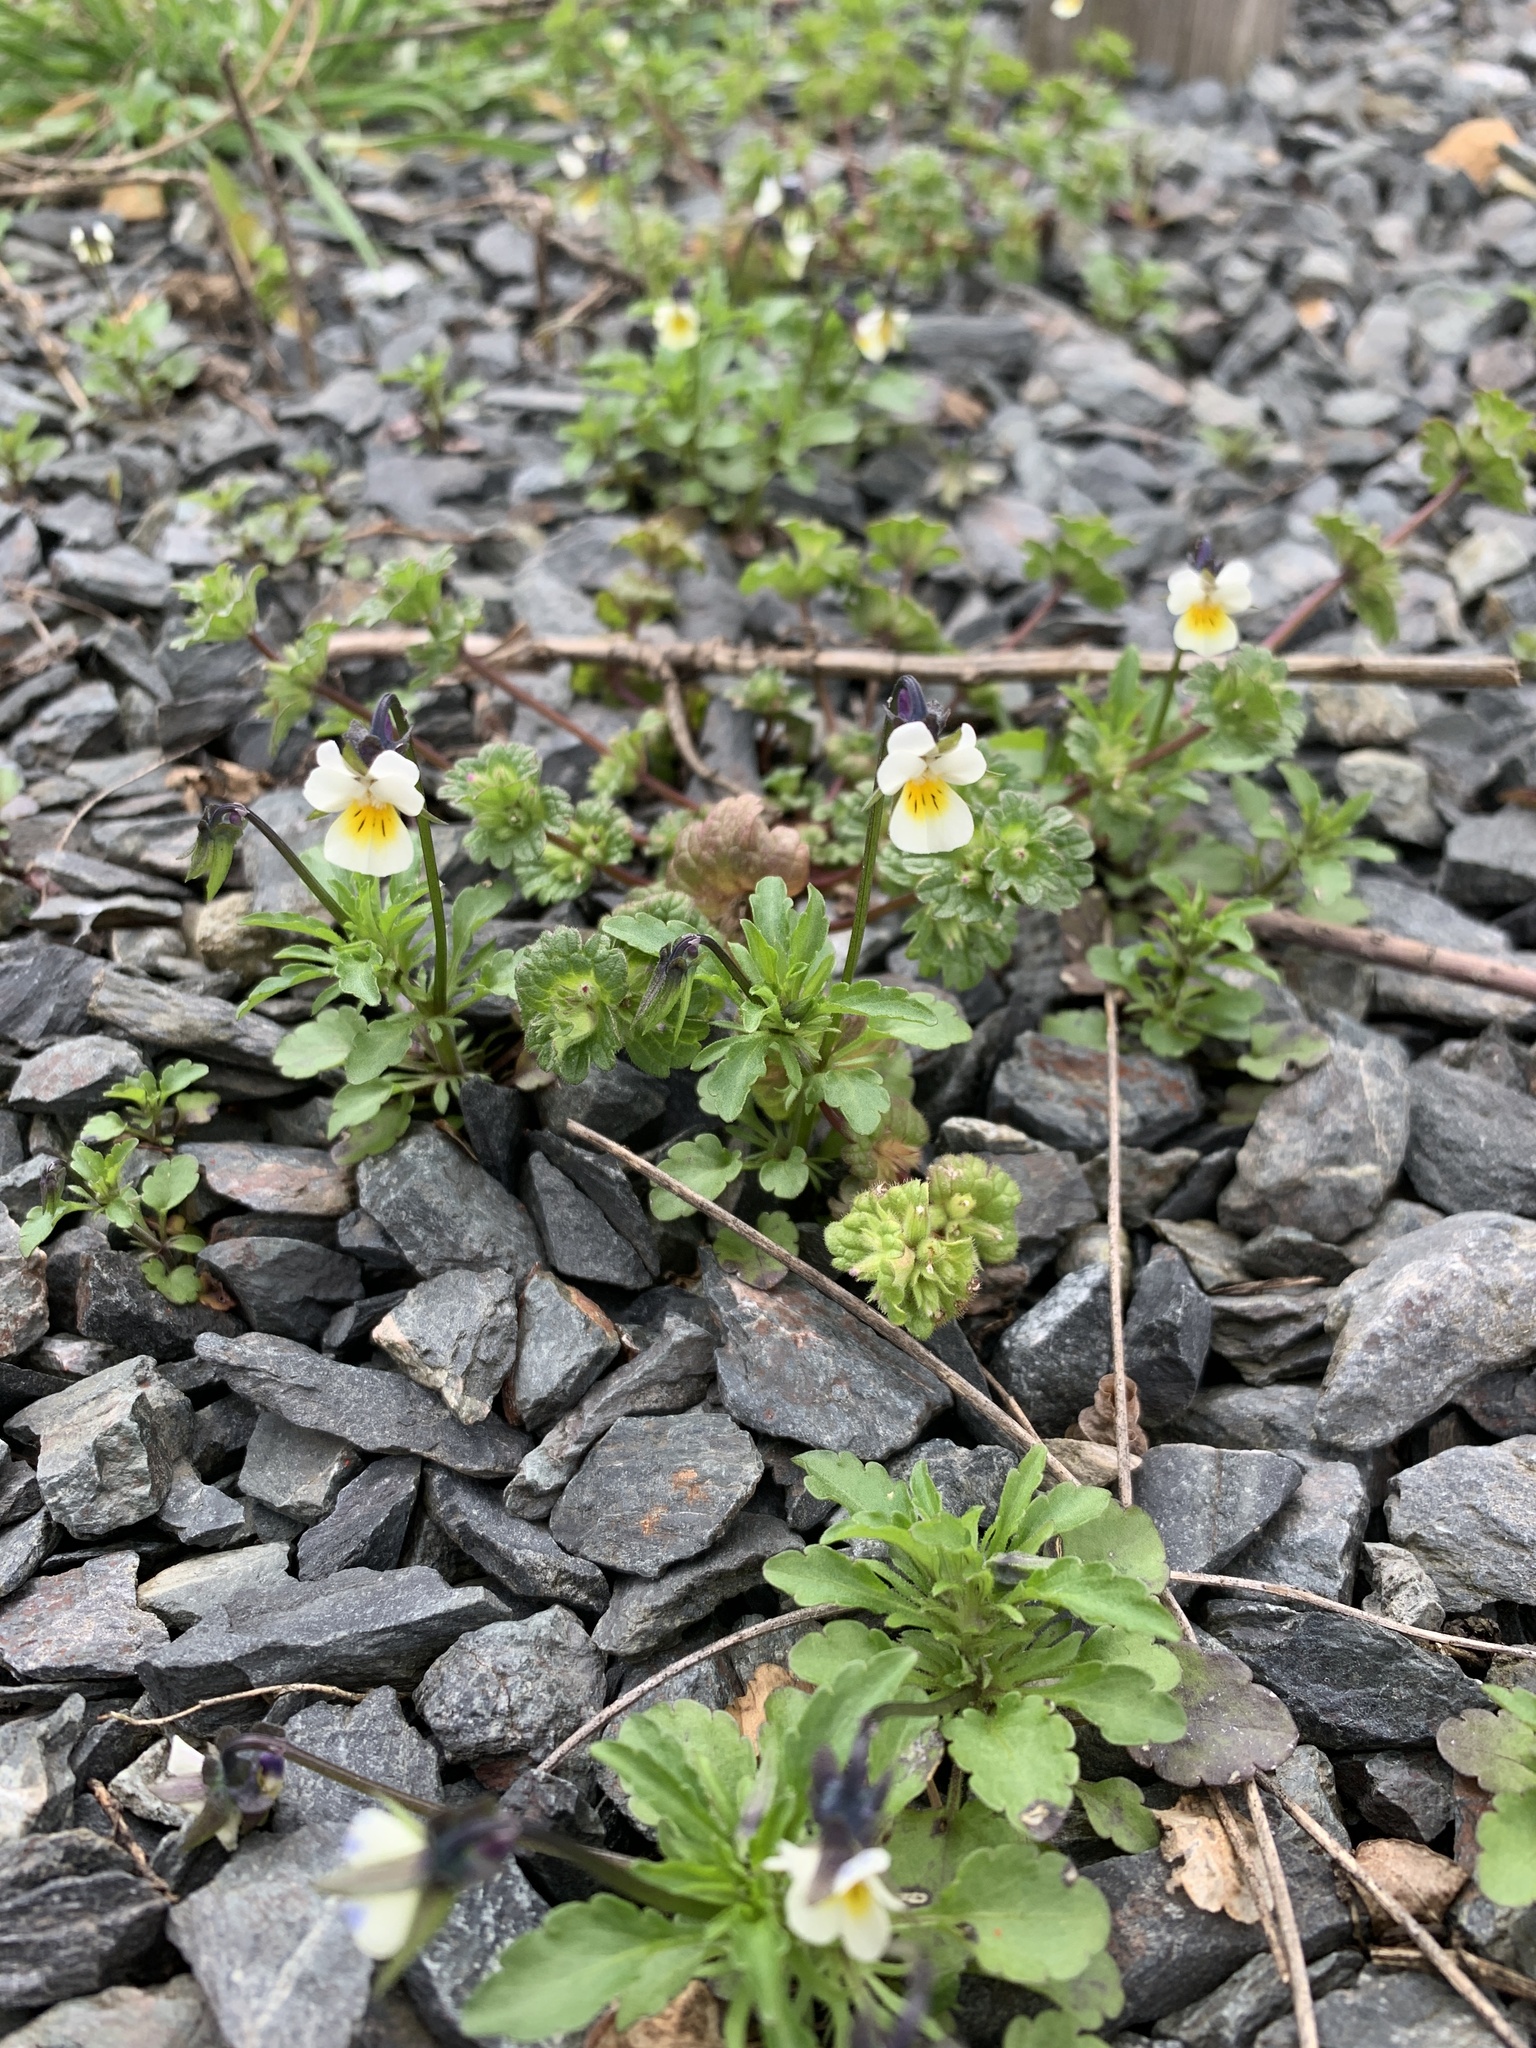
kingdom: Plantae
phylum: Tracheophyta
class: Magnoliopsida
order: Malpighiales
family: Violaceae
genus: Viola
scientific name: Viola arvensis
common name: Field pansy
